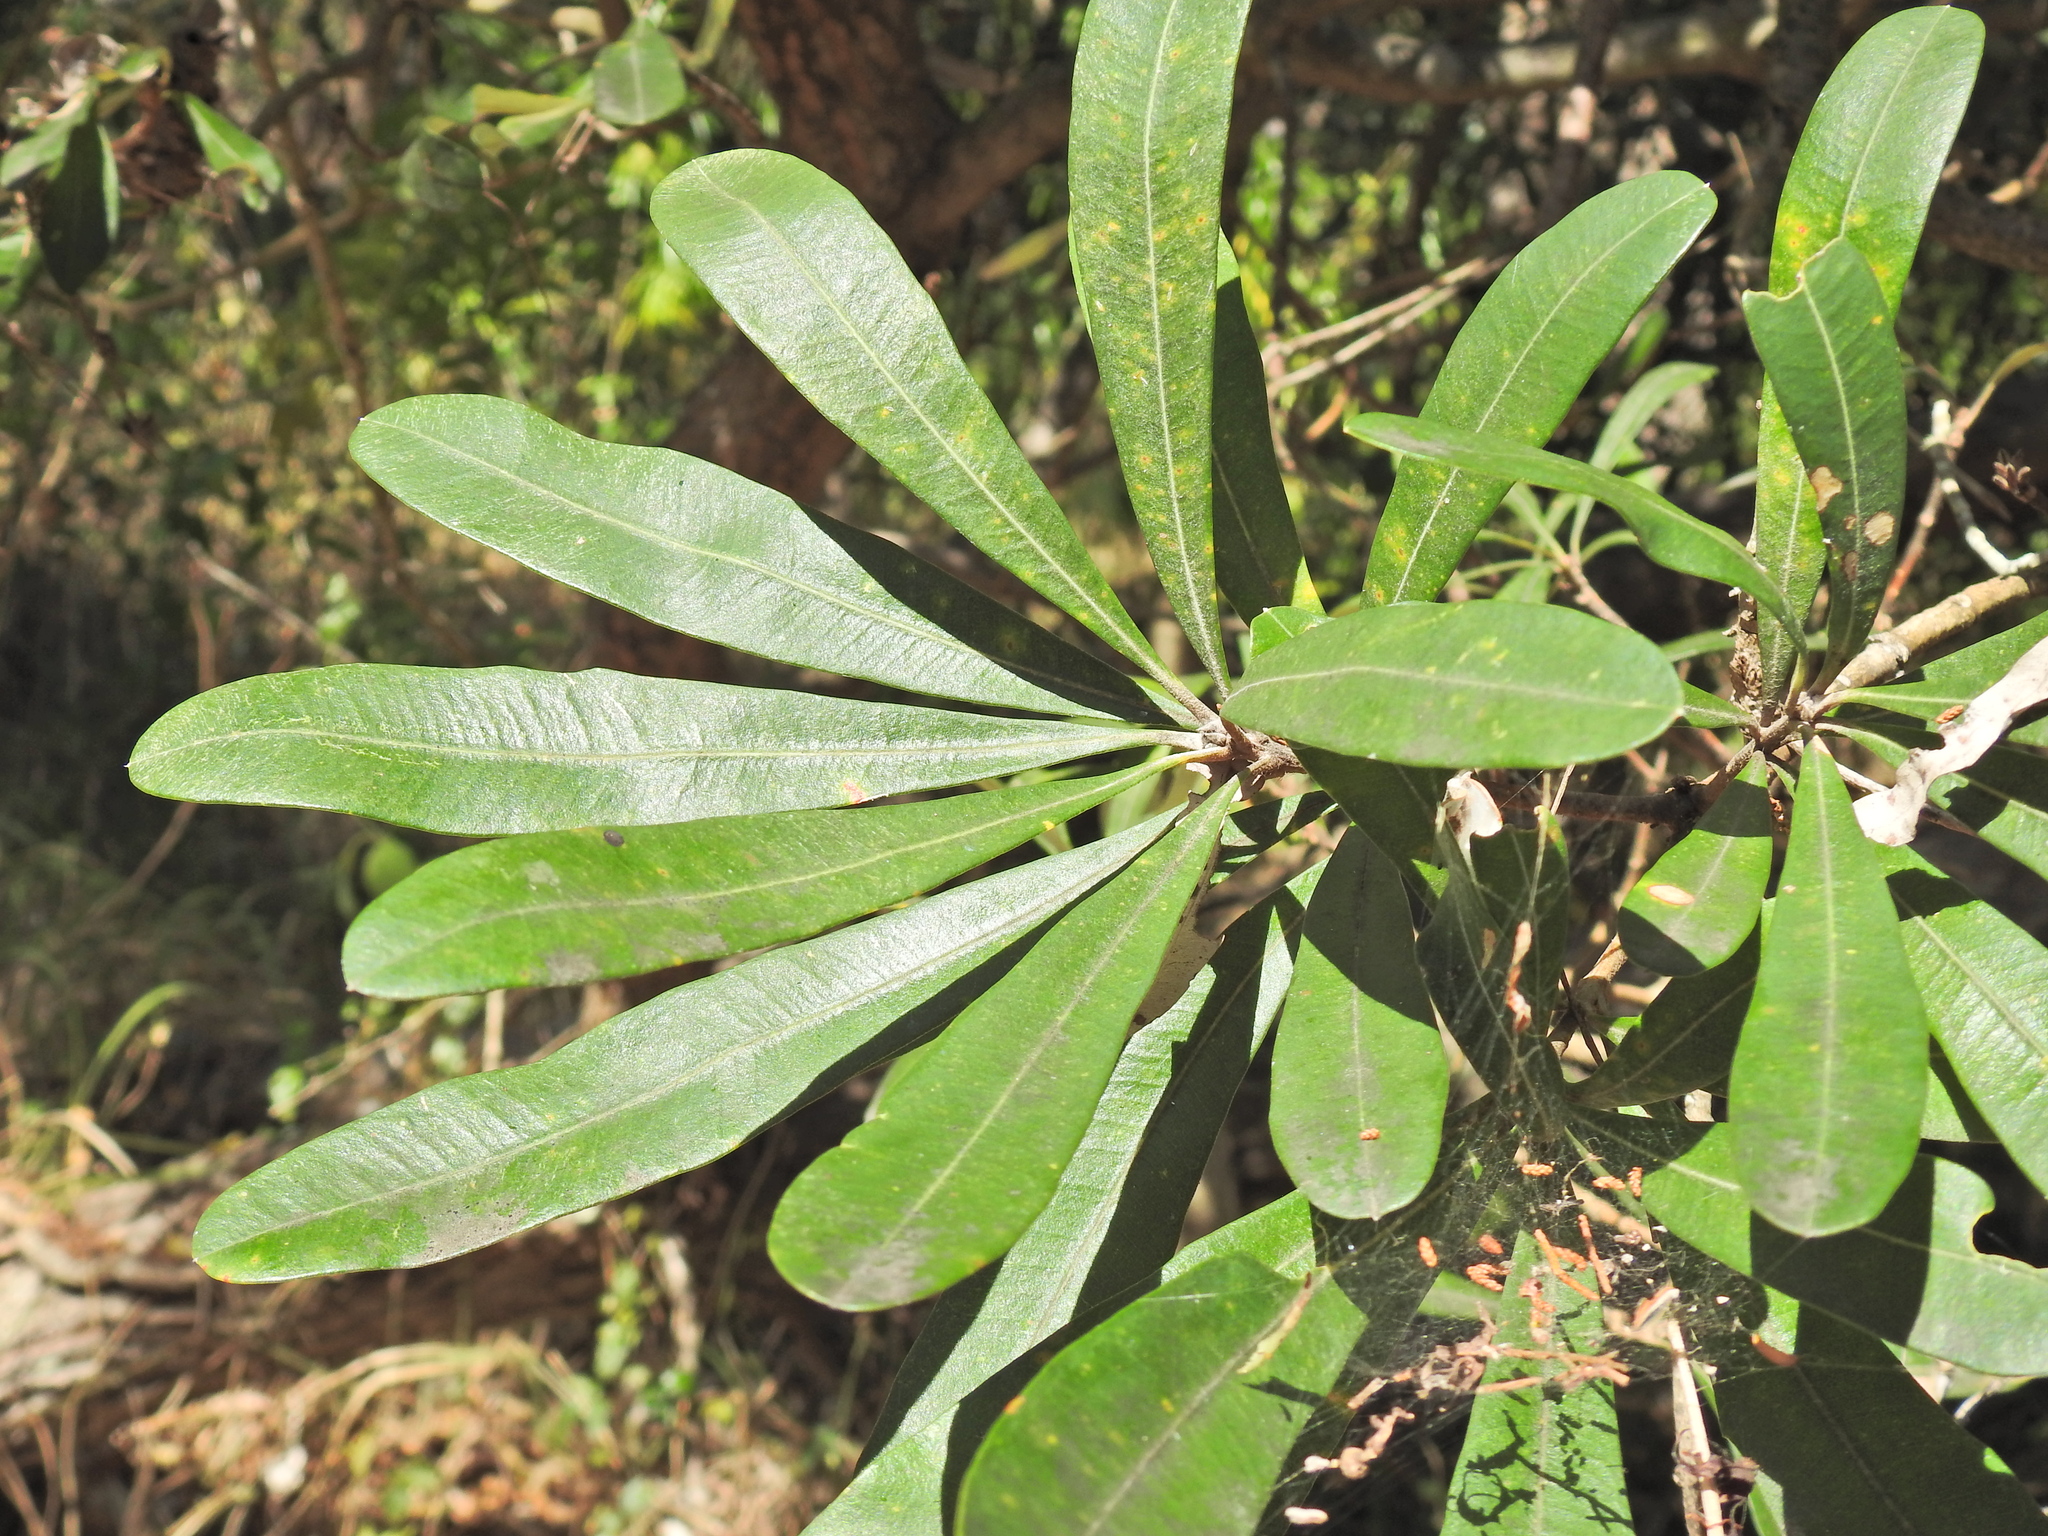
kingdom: Plantae
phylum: Tracheophyta
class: Magnoliopsida
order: Proteales
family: Proteaceae
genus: Banksia
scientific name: Banksia integrifolia
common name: White-honeysuckle
